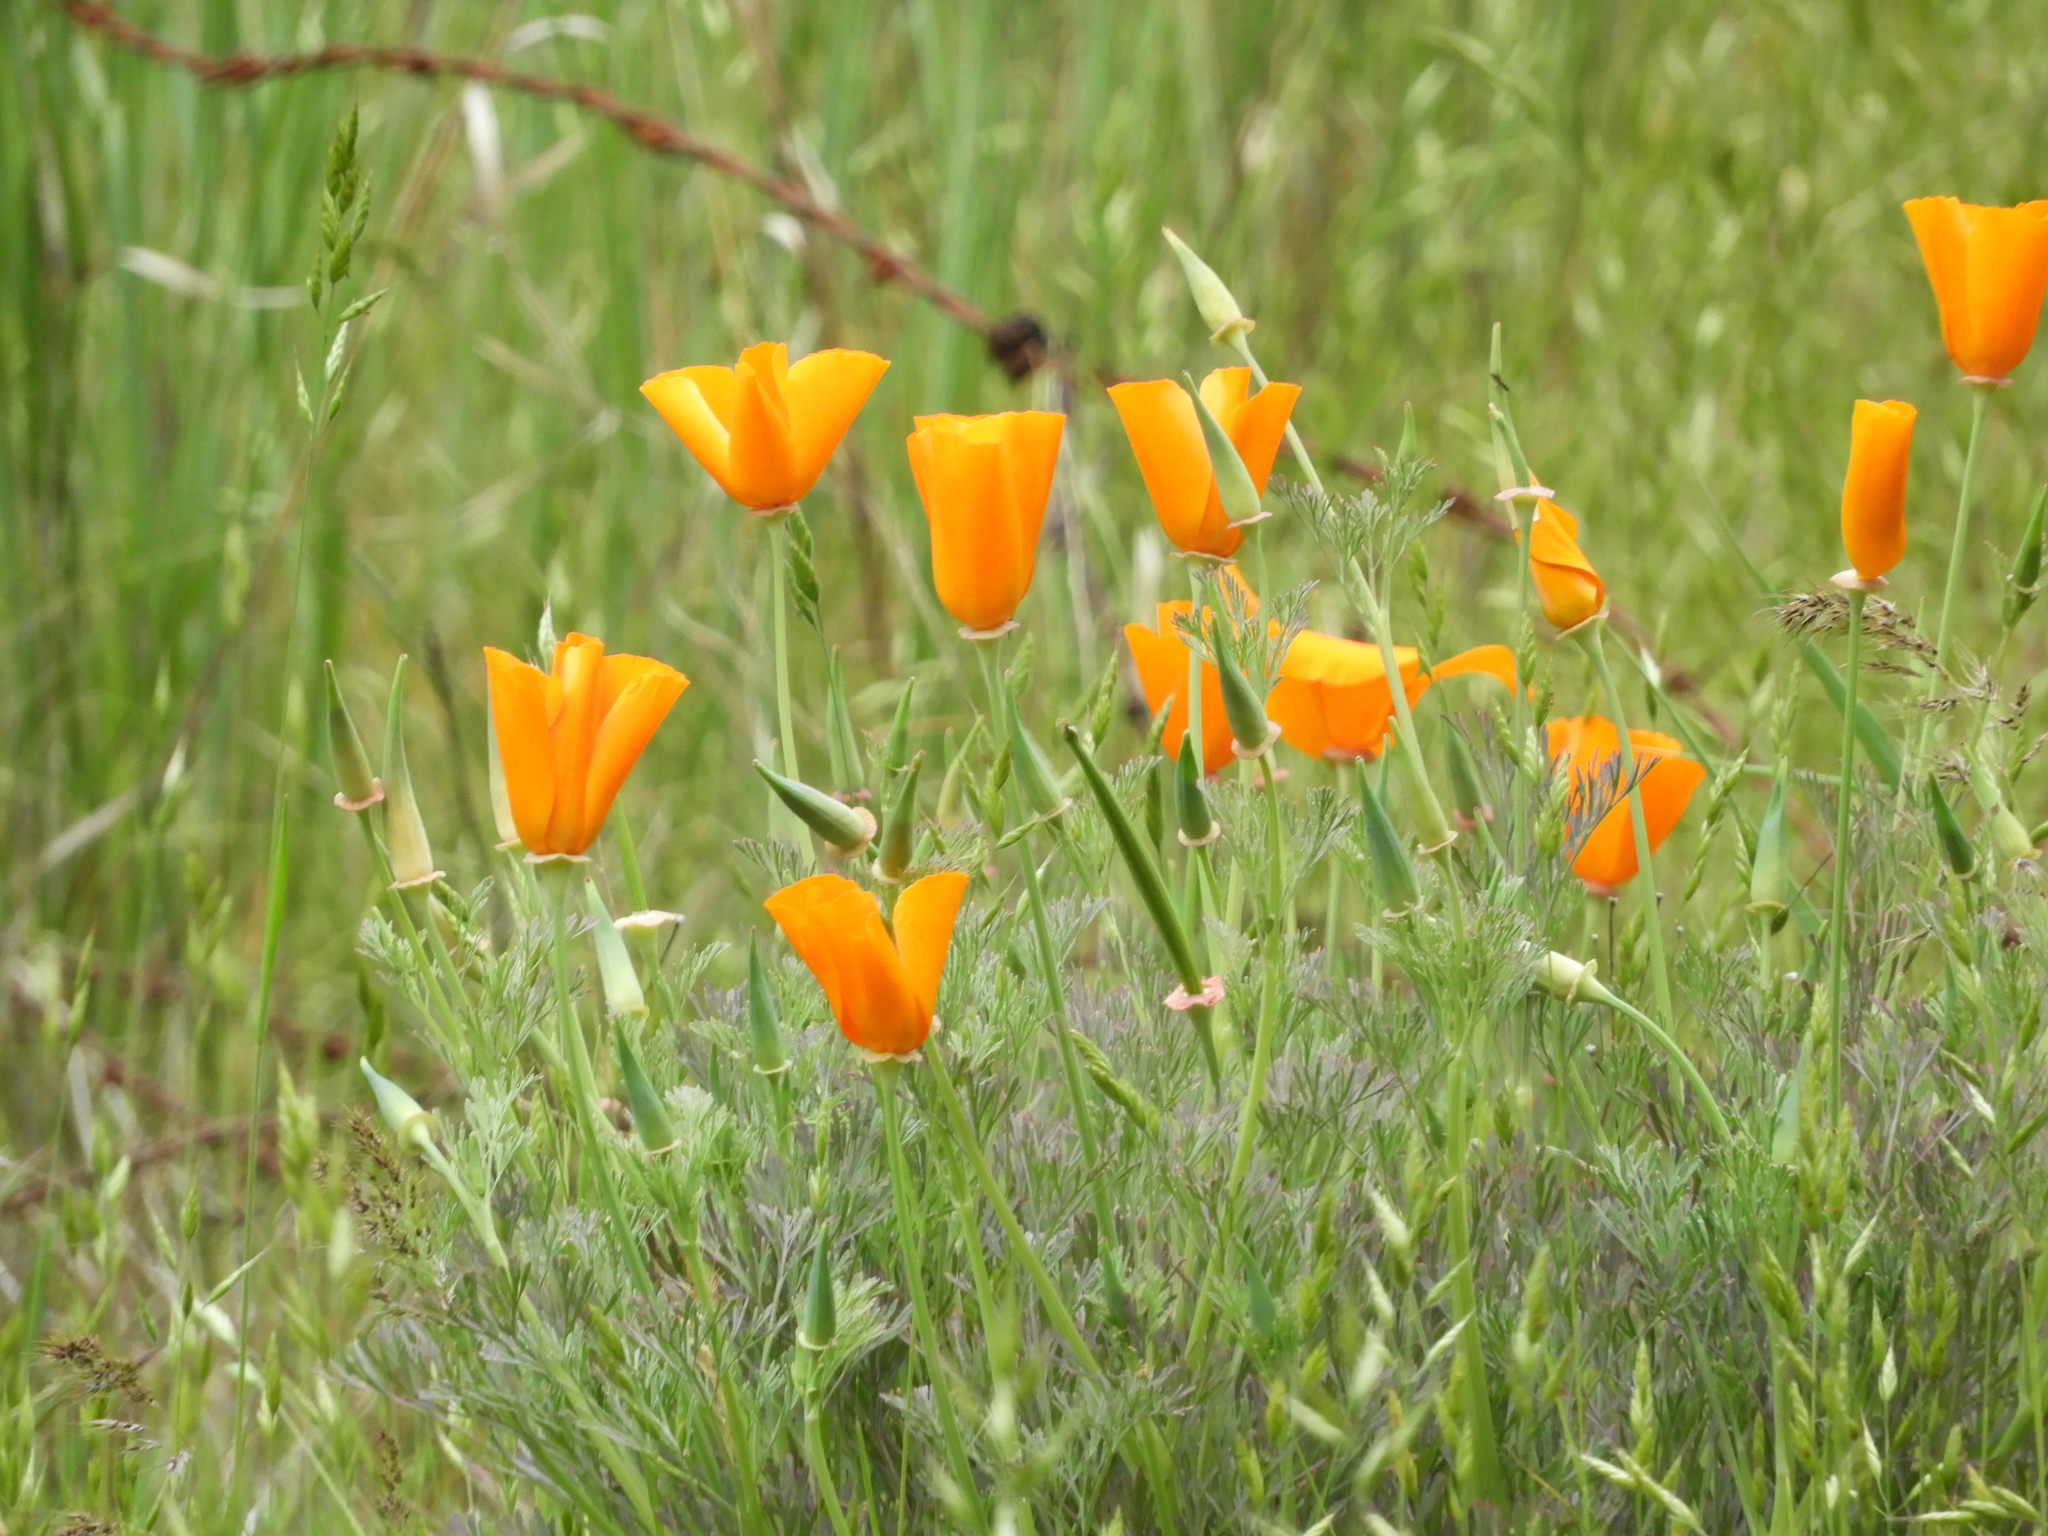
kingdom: Plantae
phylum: Tracheophyta
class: Magnoliopsida
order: Ranunculales
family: Papaveraceae
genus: Eschscholzia
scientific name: Eschscholzia californica
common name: California poppy
